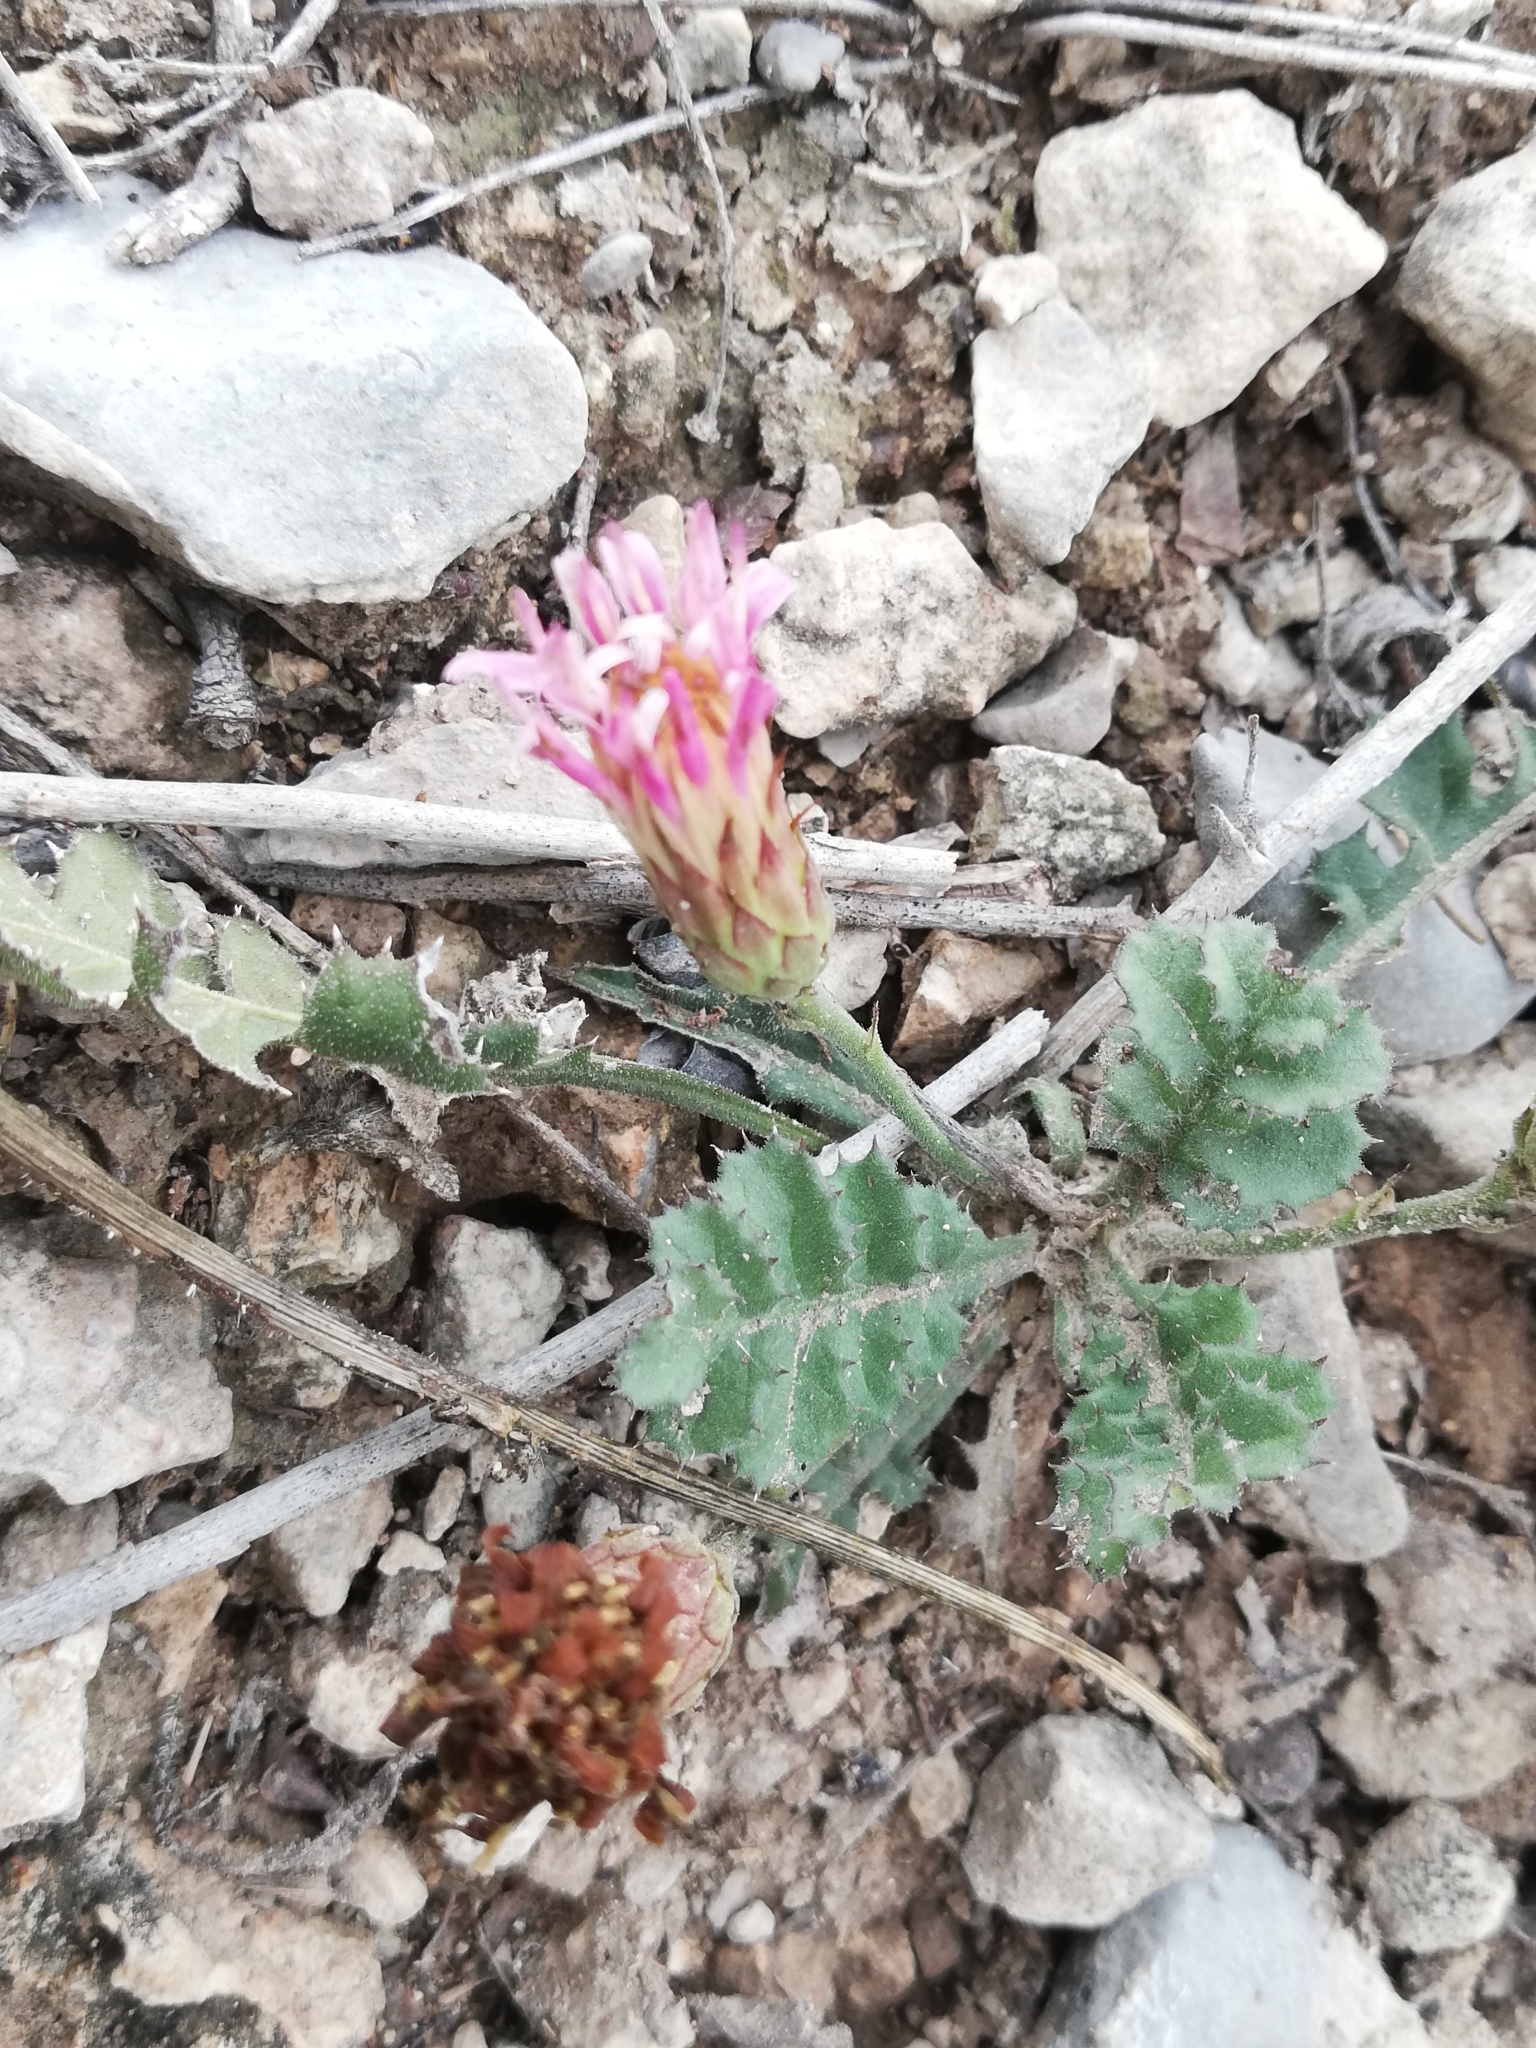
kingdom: Plantae
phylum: Tracheophyta
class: Magnoliopsida
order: Asterales
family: Asteraceae
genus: Acourtia
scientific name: Acourtia runcinata
